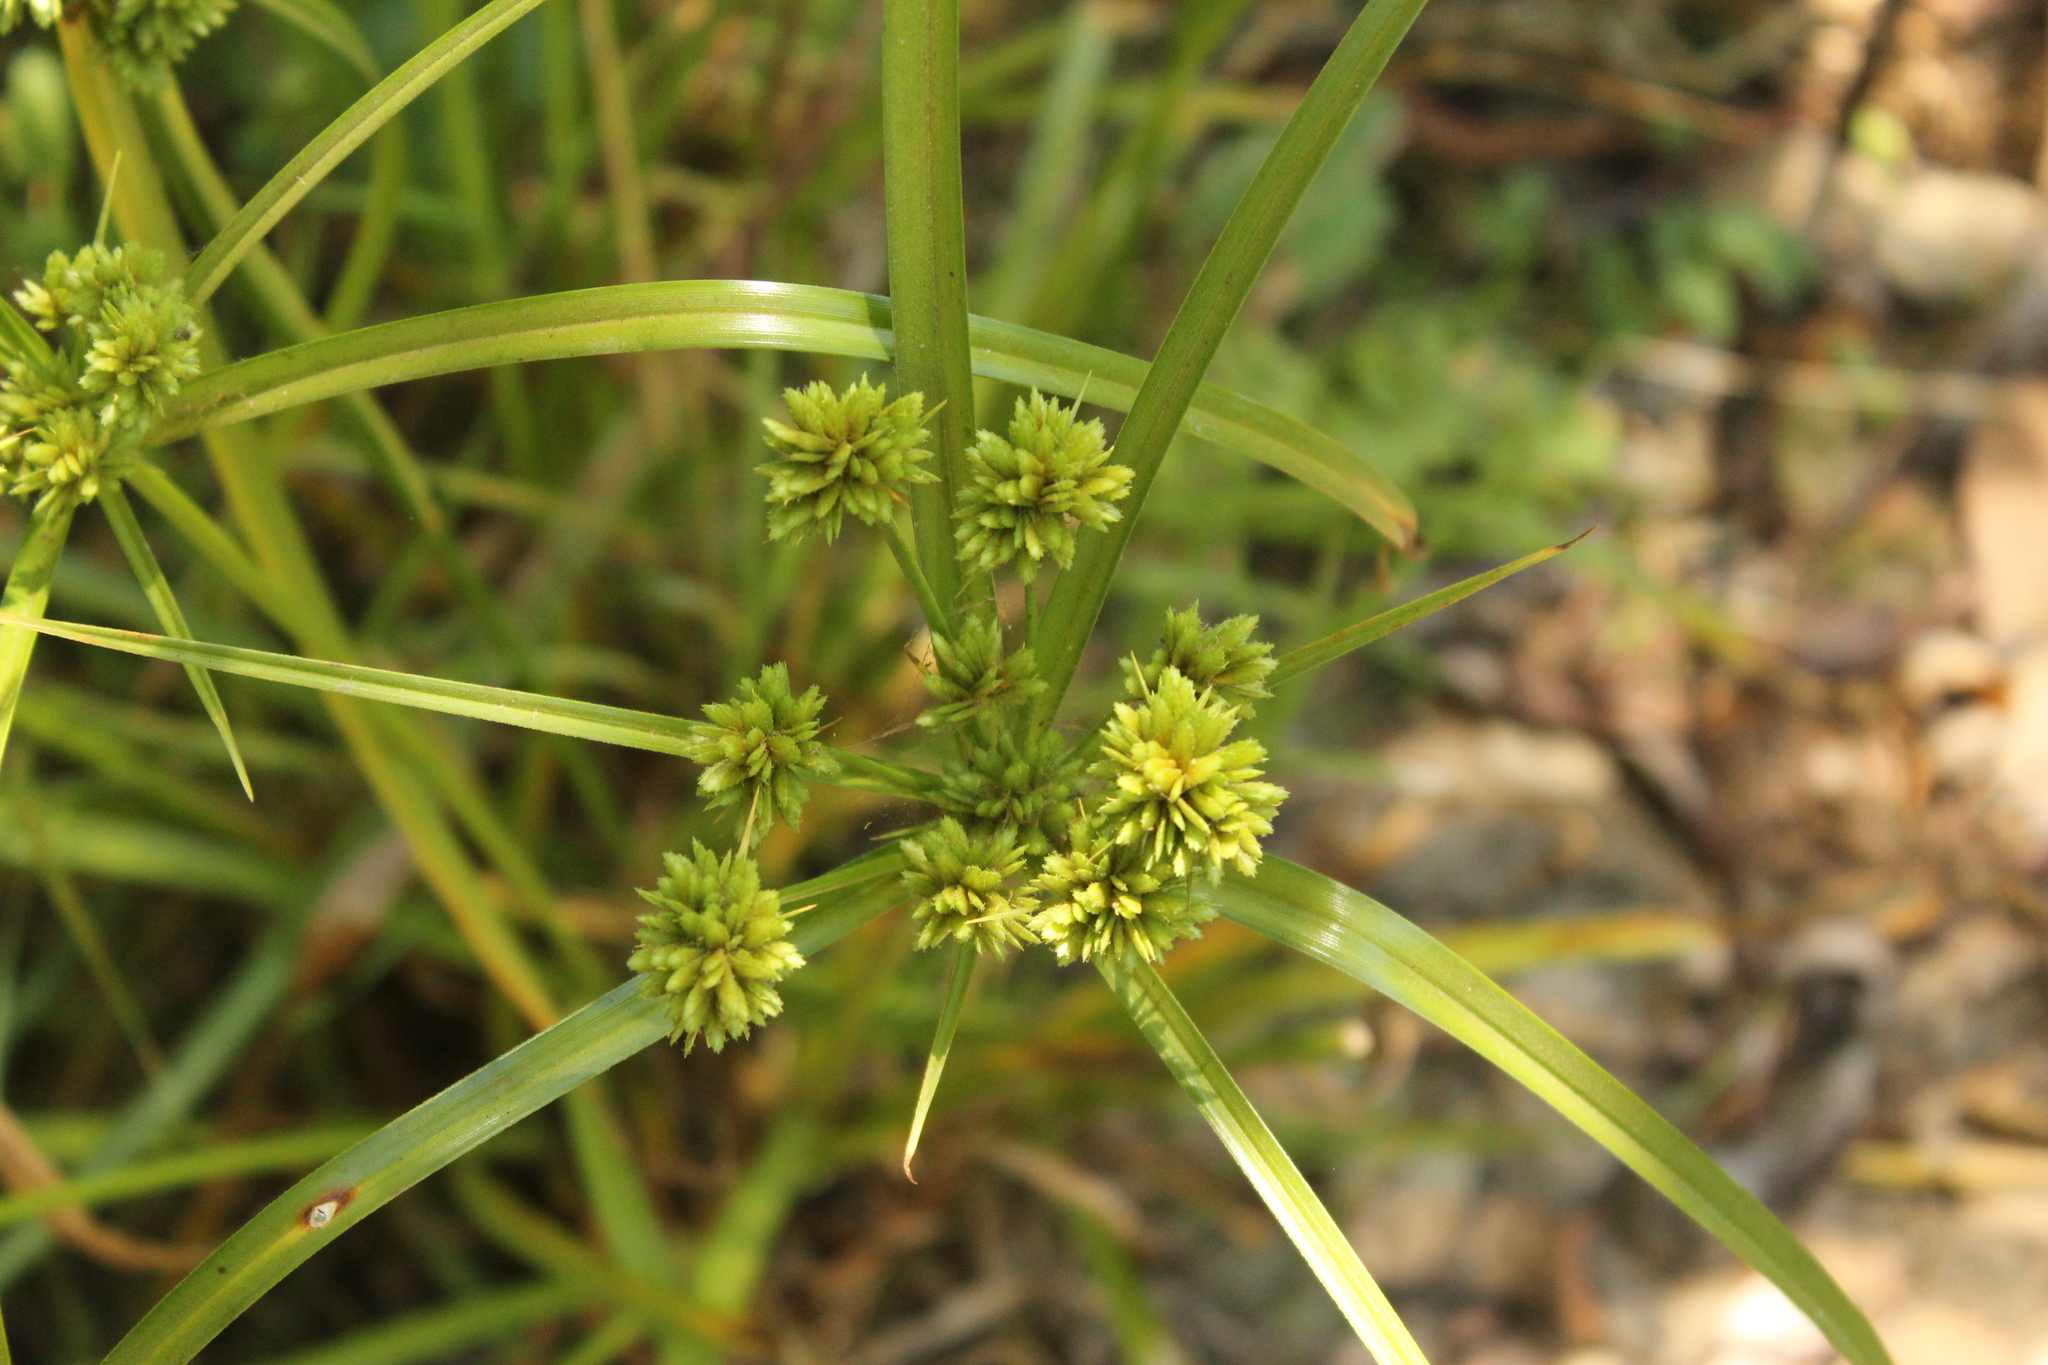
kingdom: Plantae
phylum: Tracheophyta
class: Liliopsida
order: Poales
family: Cyperaceae
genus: Cyperus
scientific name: Cyperus eragrostis
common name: Tall flatsedge
